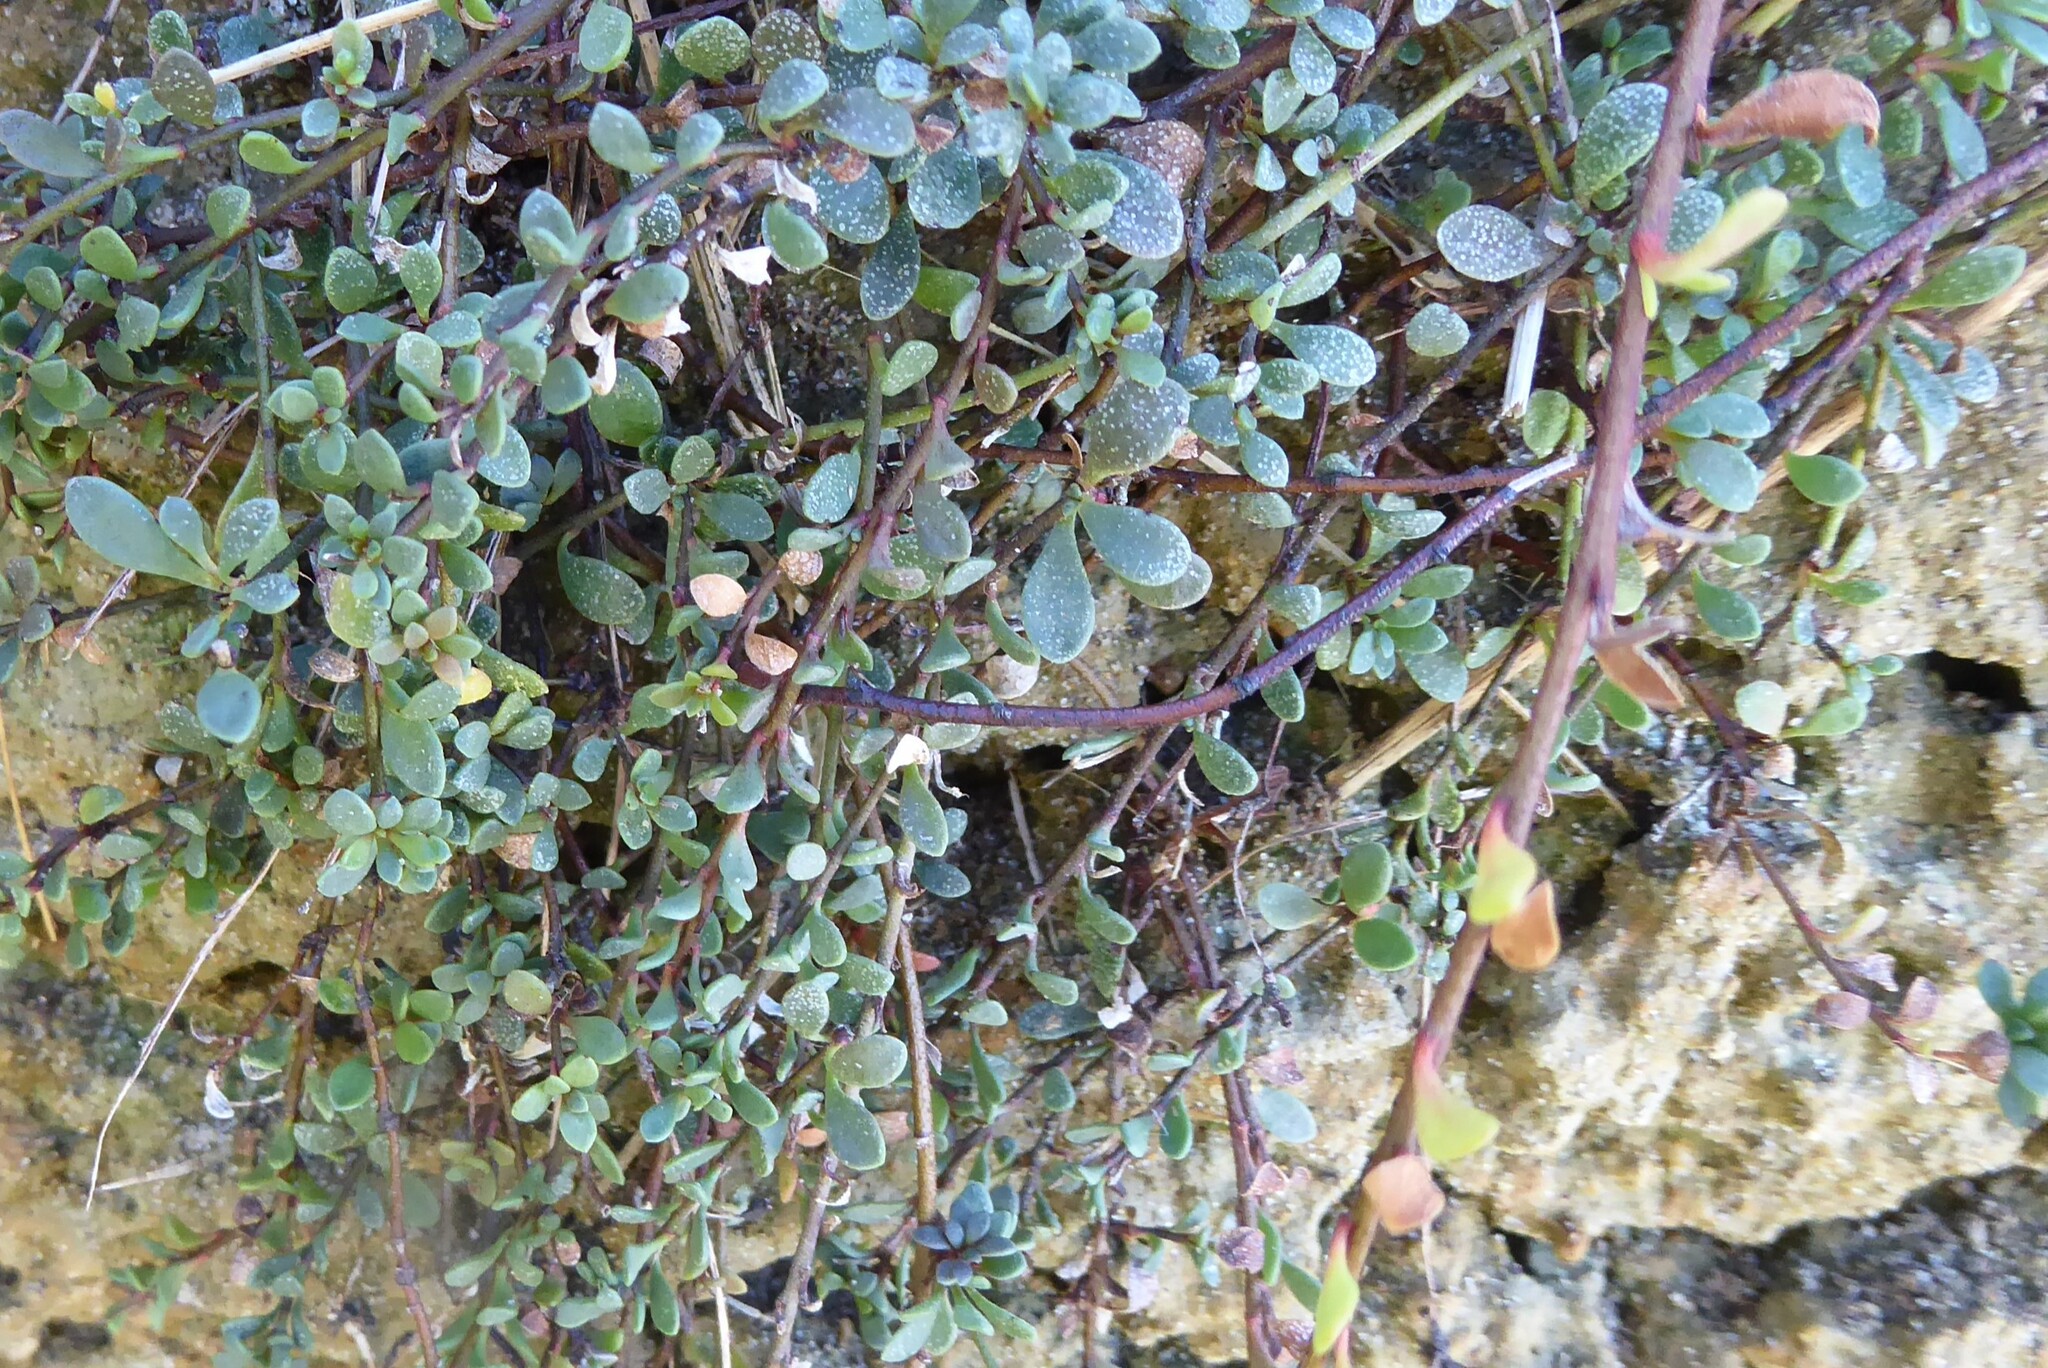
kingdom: Plantae
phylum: Tracheophyta
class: Magnoliopsida
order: Ericales
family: Primulaceae
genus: Samolus
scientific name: Samolus repens
